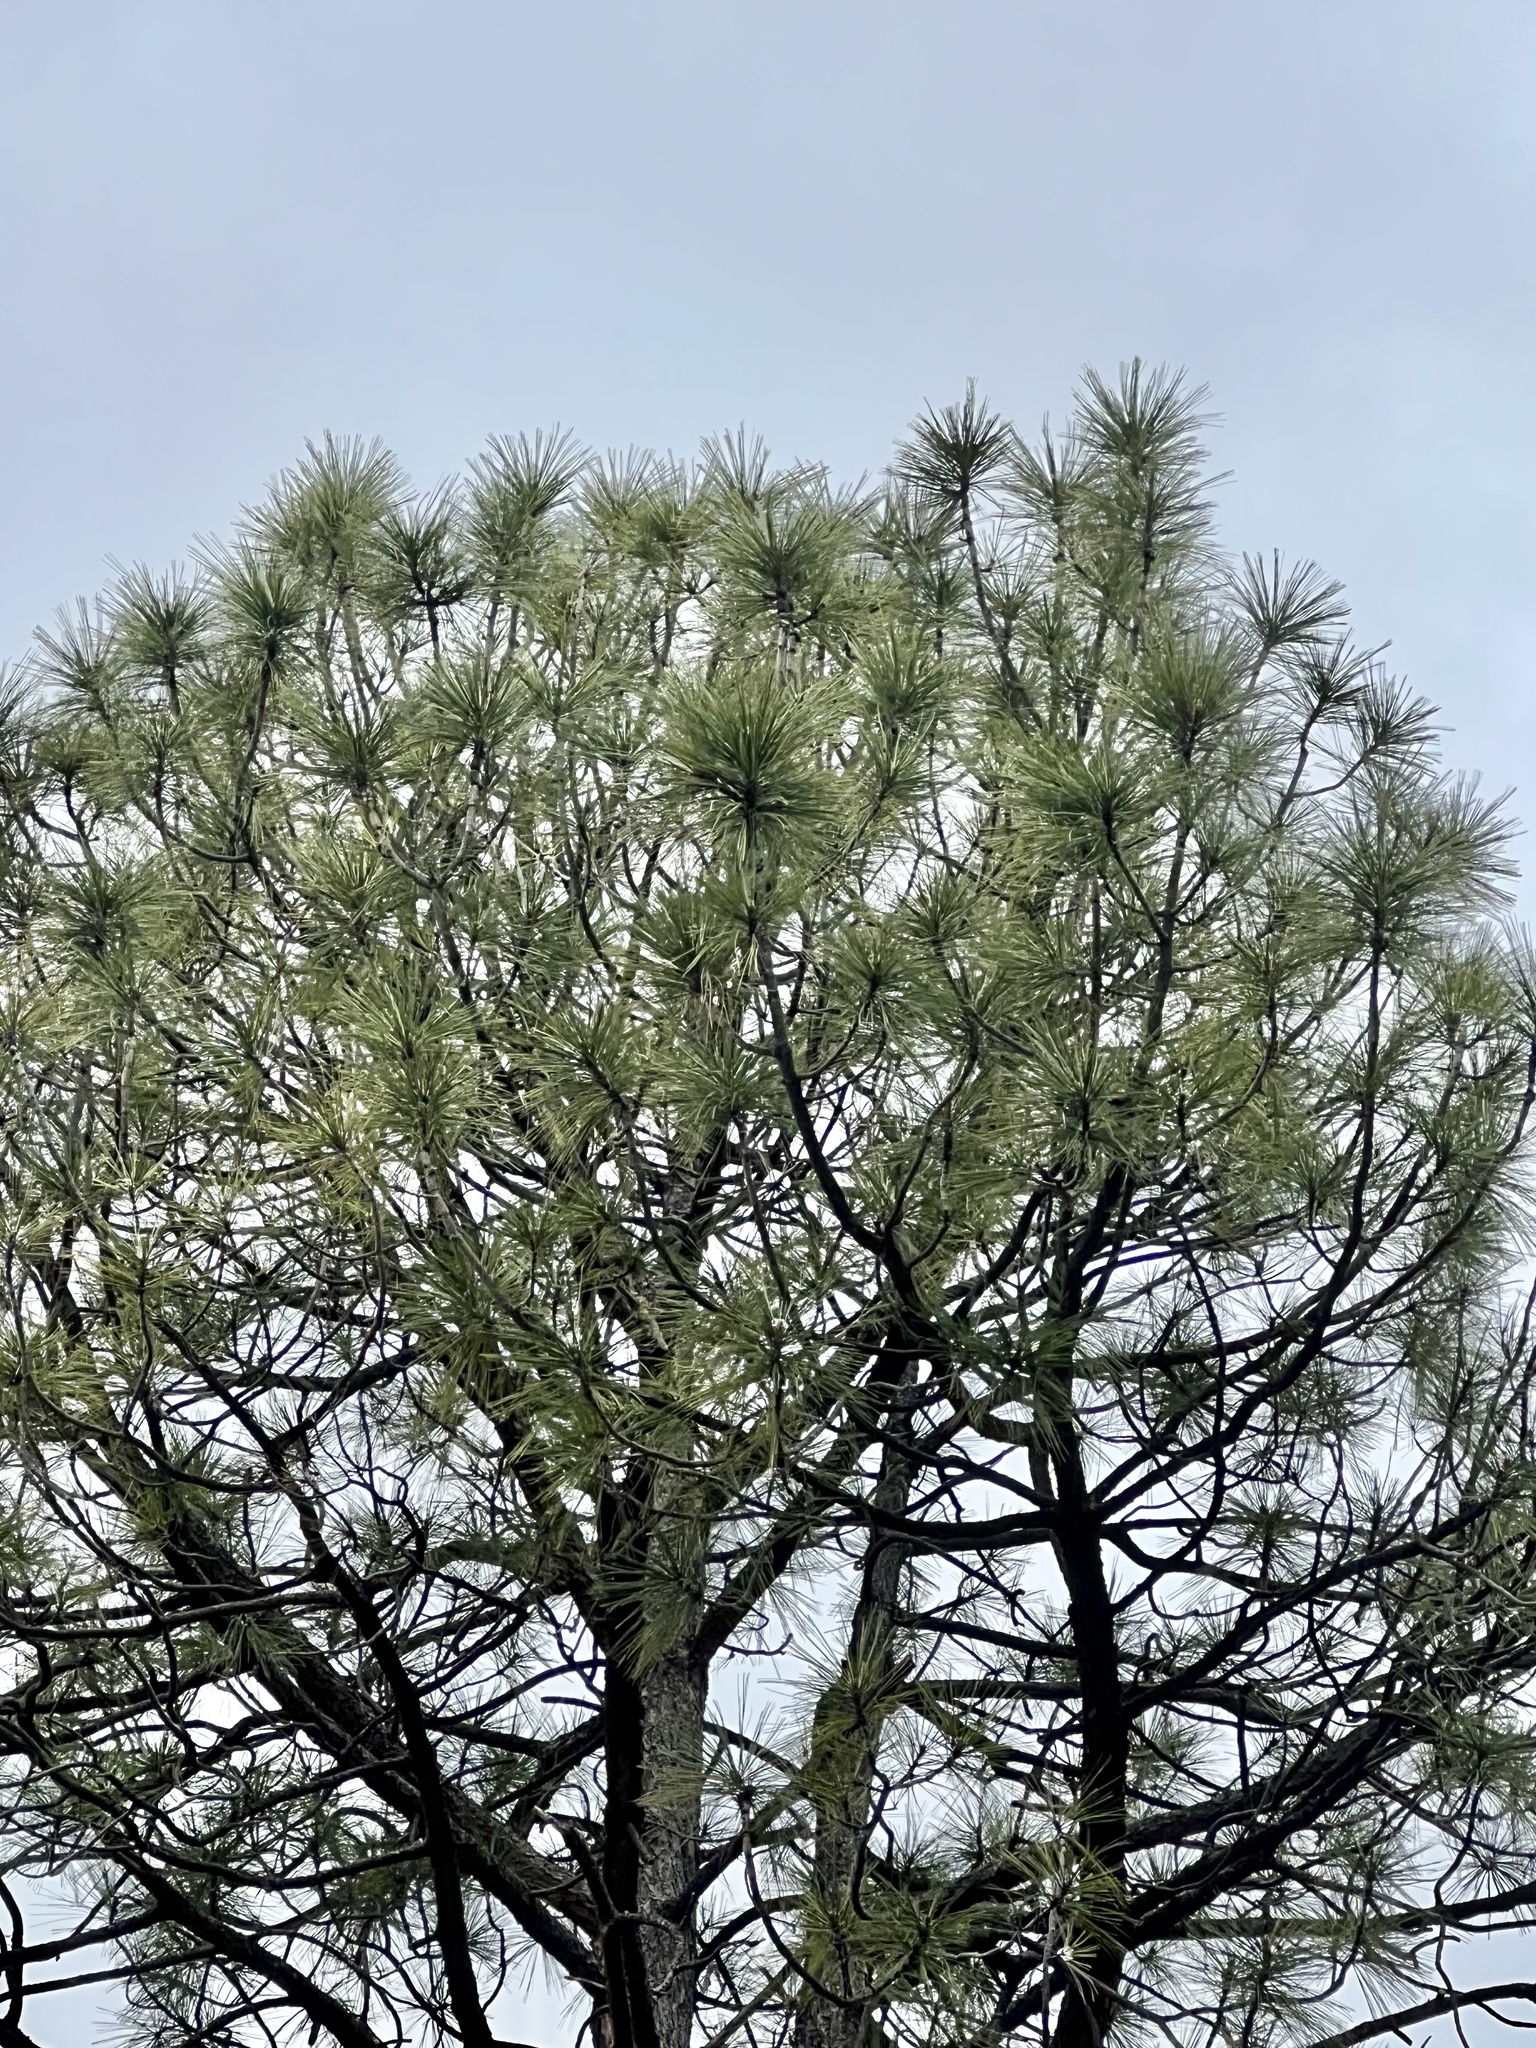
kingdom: Plantae
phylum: Tracheophyta
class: Pinopsida
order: Pinales
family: Pinaceae
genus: Pinus
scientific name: Pinus ponderosa
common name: Western yellow-pine
